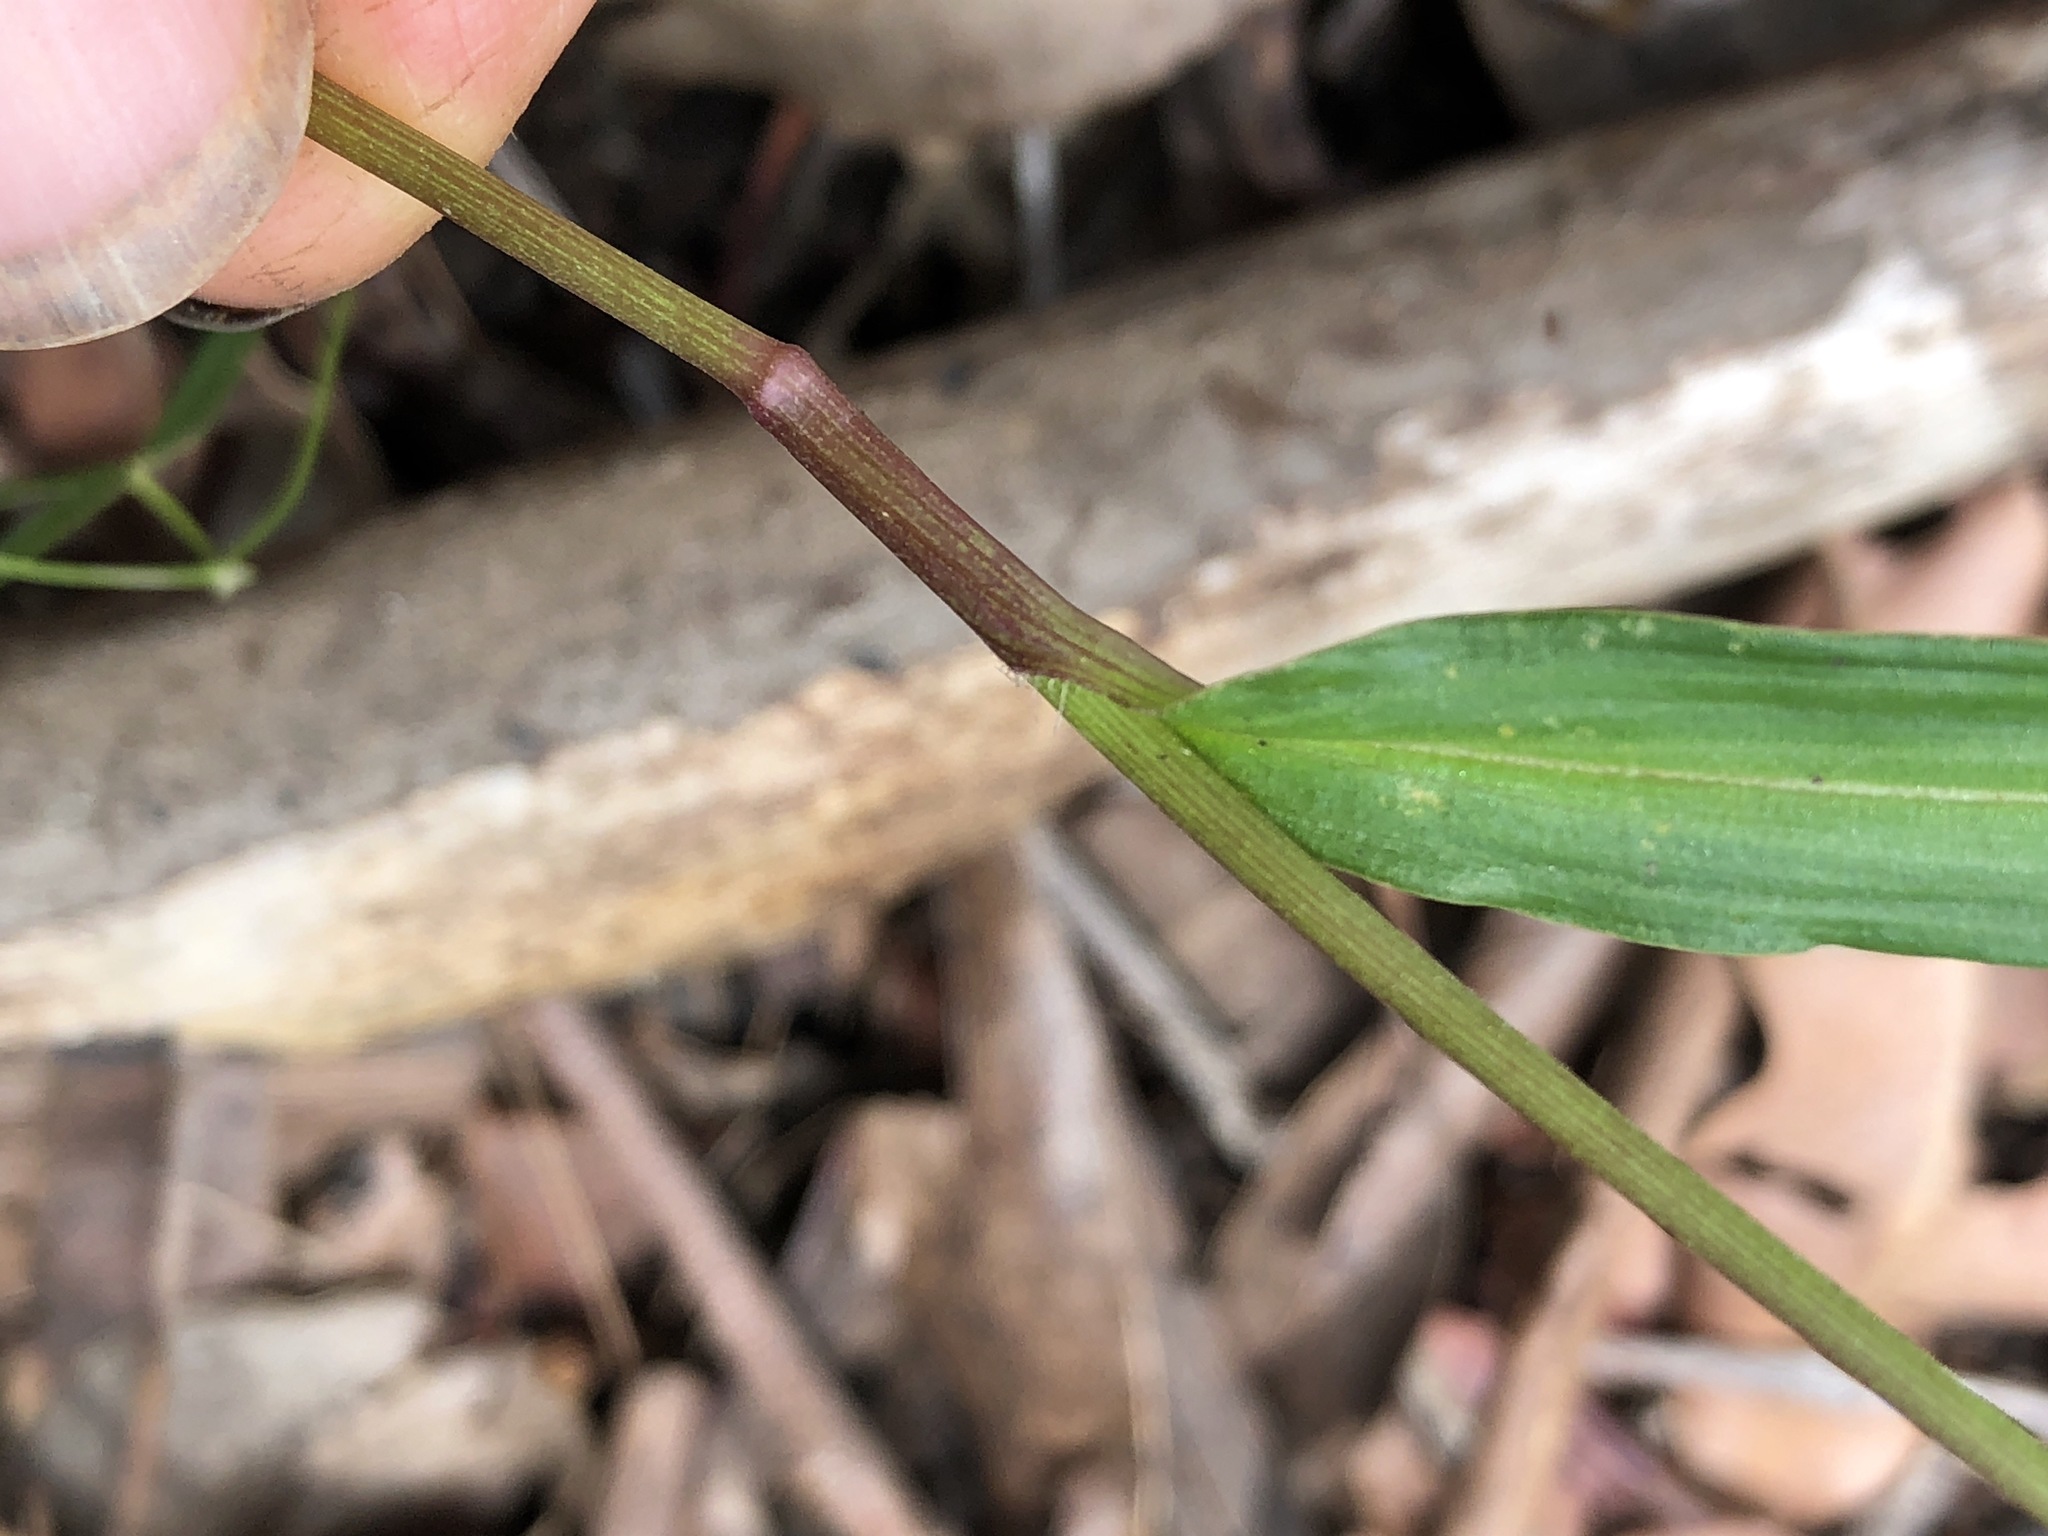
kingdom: Plantae
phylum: Tracheophyta
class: Liliopsida
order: Commelinales
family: Commelinaceae
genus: Commelina
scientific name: Commelina lanceolata
